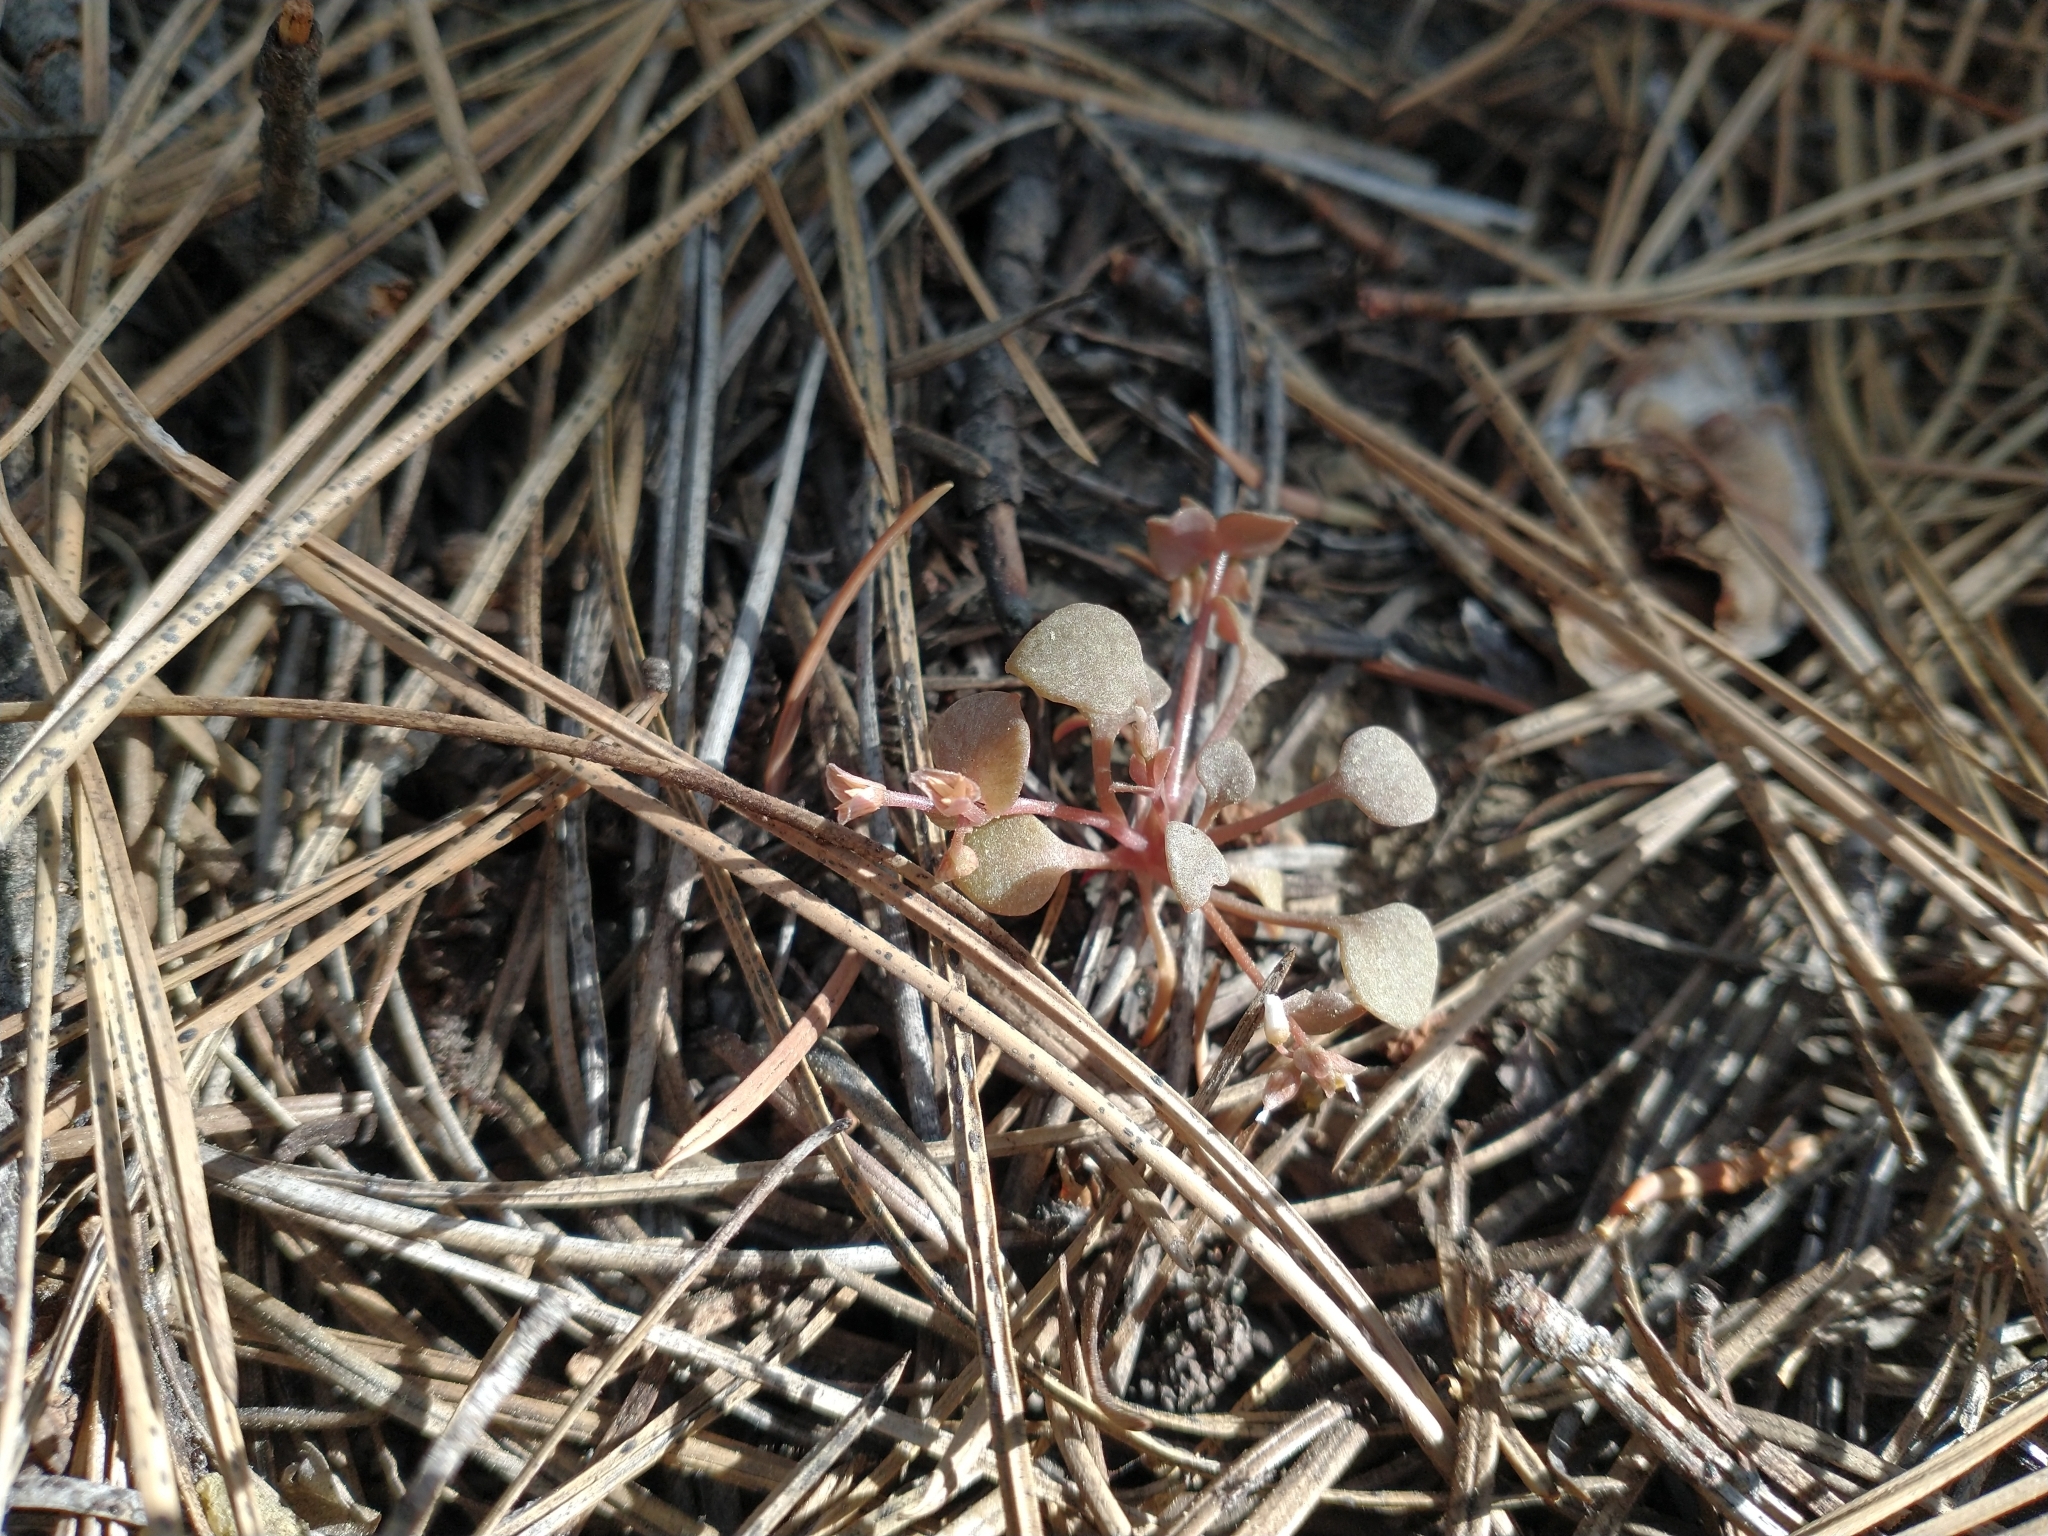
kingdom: Plantae
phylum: Tracheophyta
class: Magnoliopsida
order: Caryophyllales
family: Montiaceae
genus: Claytonia
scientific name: Claytonia rubra
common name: Erubescent miner's-lettuce
